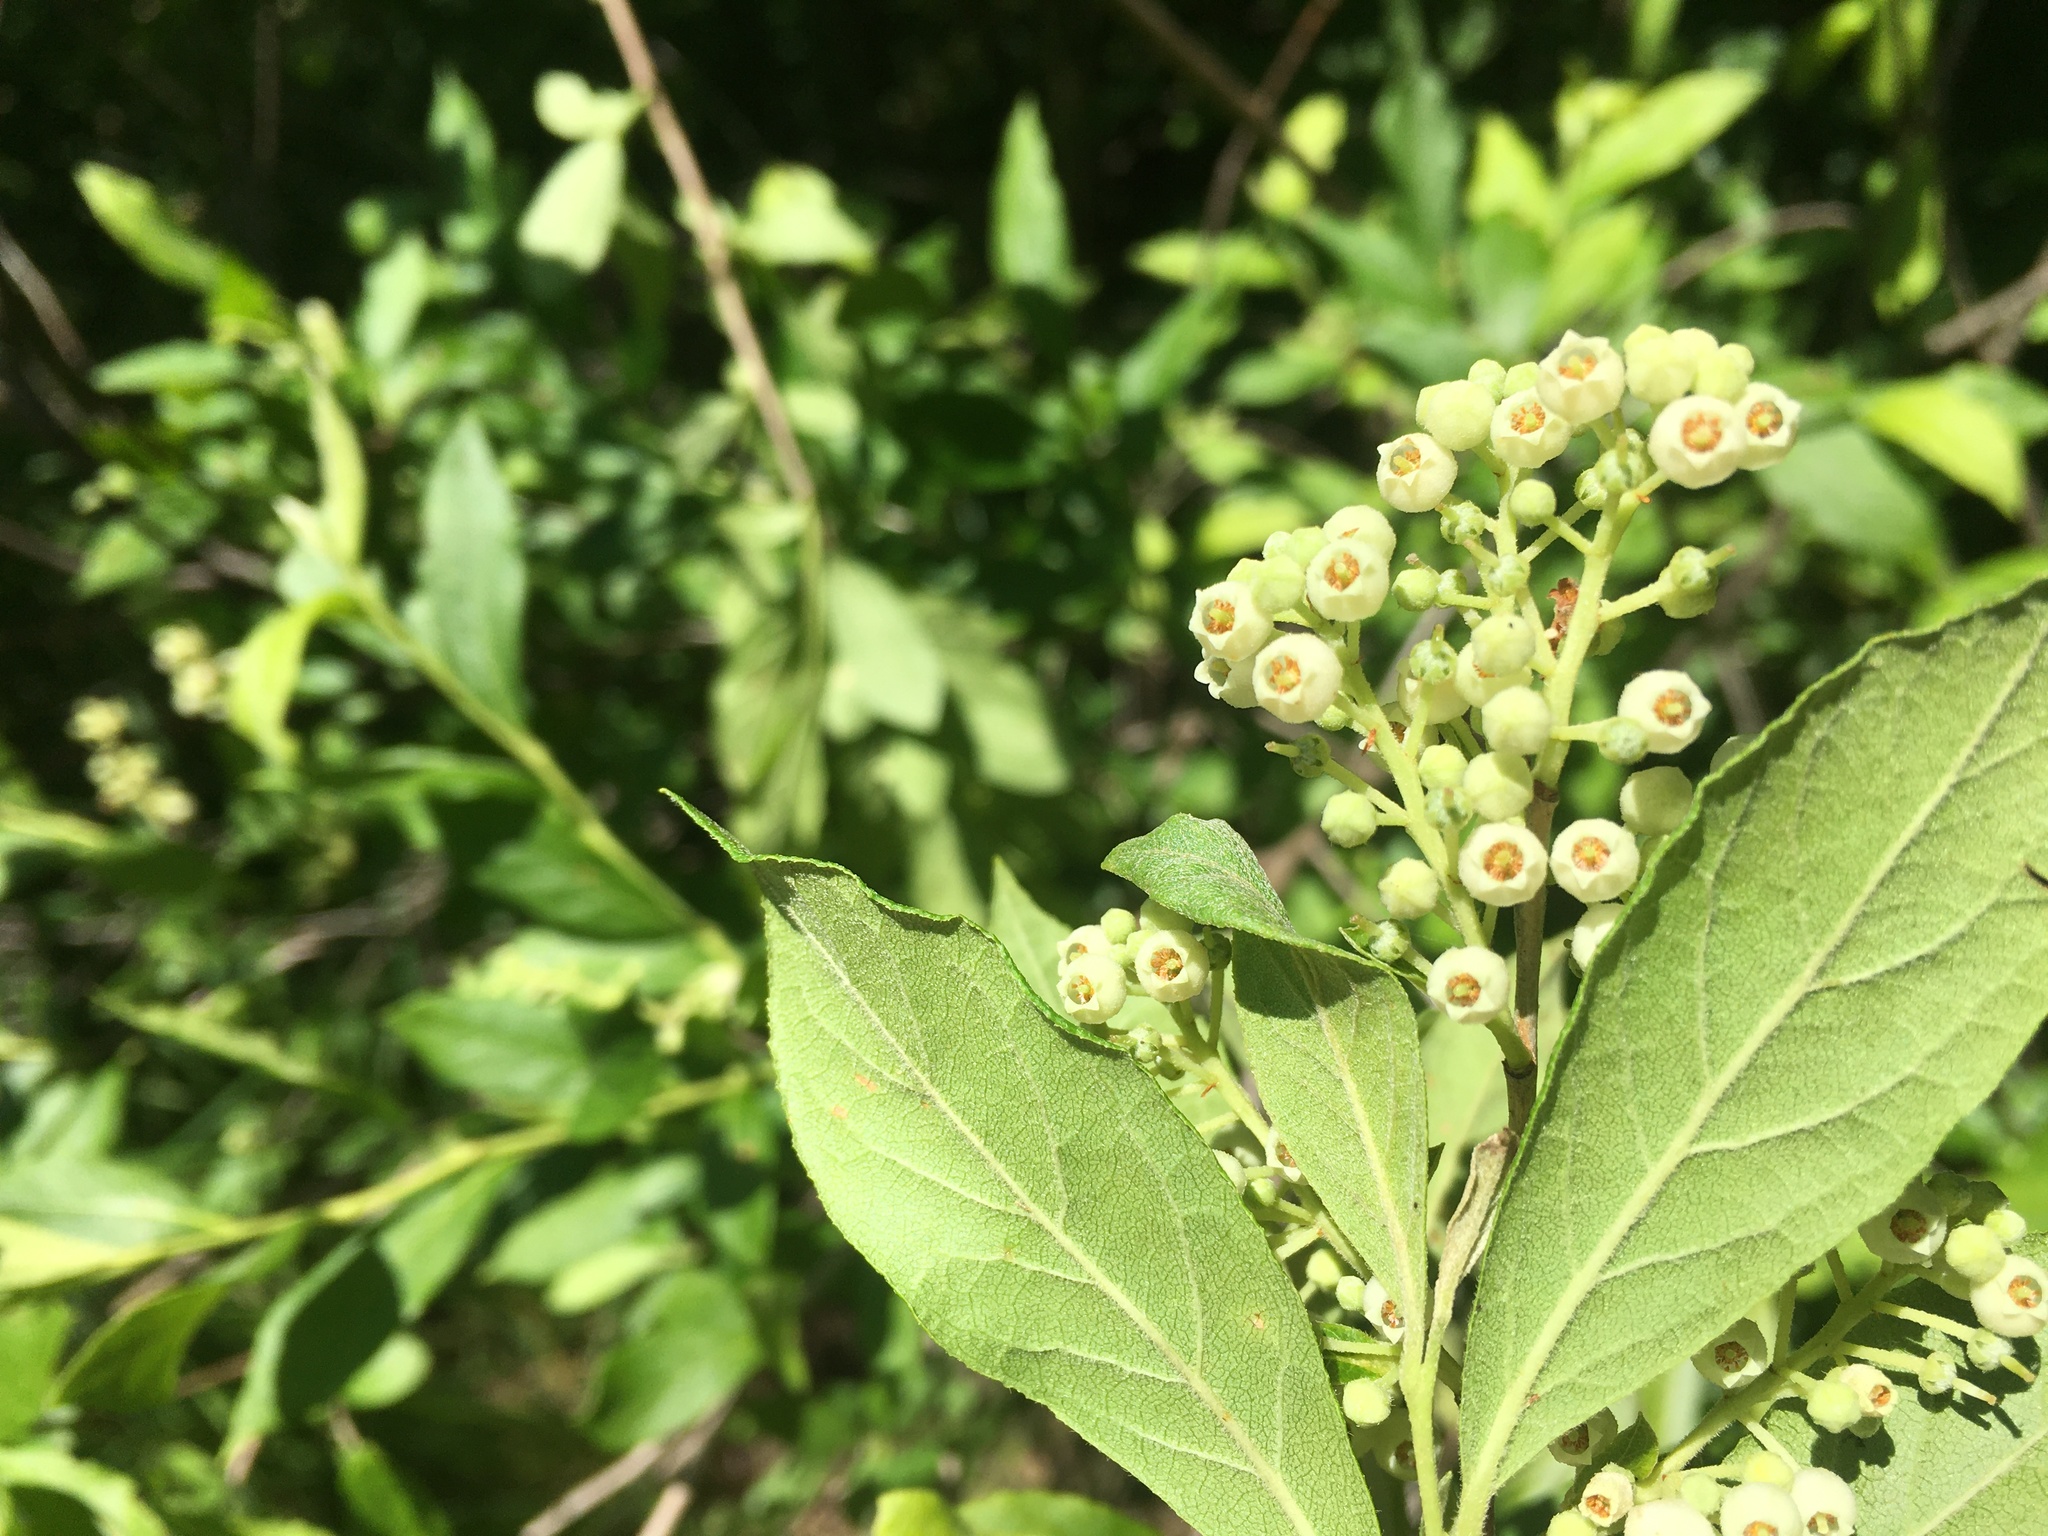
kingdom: Plantae
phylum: Tracheophyta
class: Magnoliopsida
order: Ericales
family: Ericaceae
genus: Lyonia
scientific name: Lyonia ligustrina
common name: Maleberry
